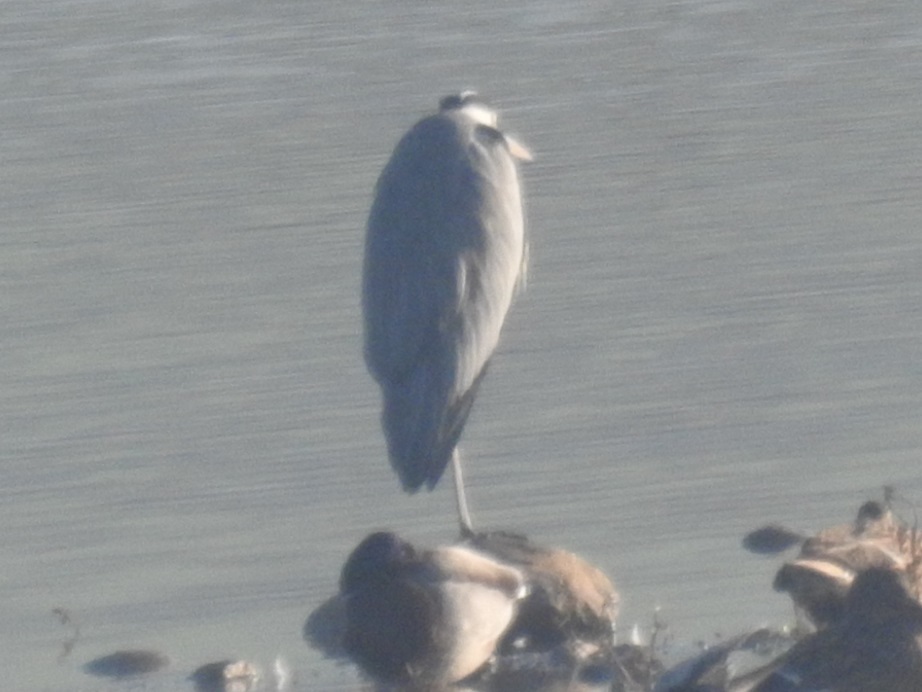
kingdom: Animalia
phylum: Chordata
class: Aves
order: Pelecaniformes
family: Ardeidae
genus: Ardea
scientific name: Ardea cinerea
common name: Grey heron
